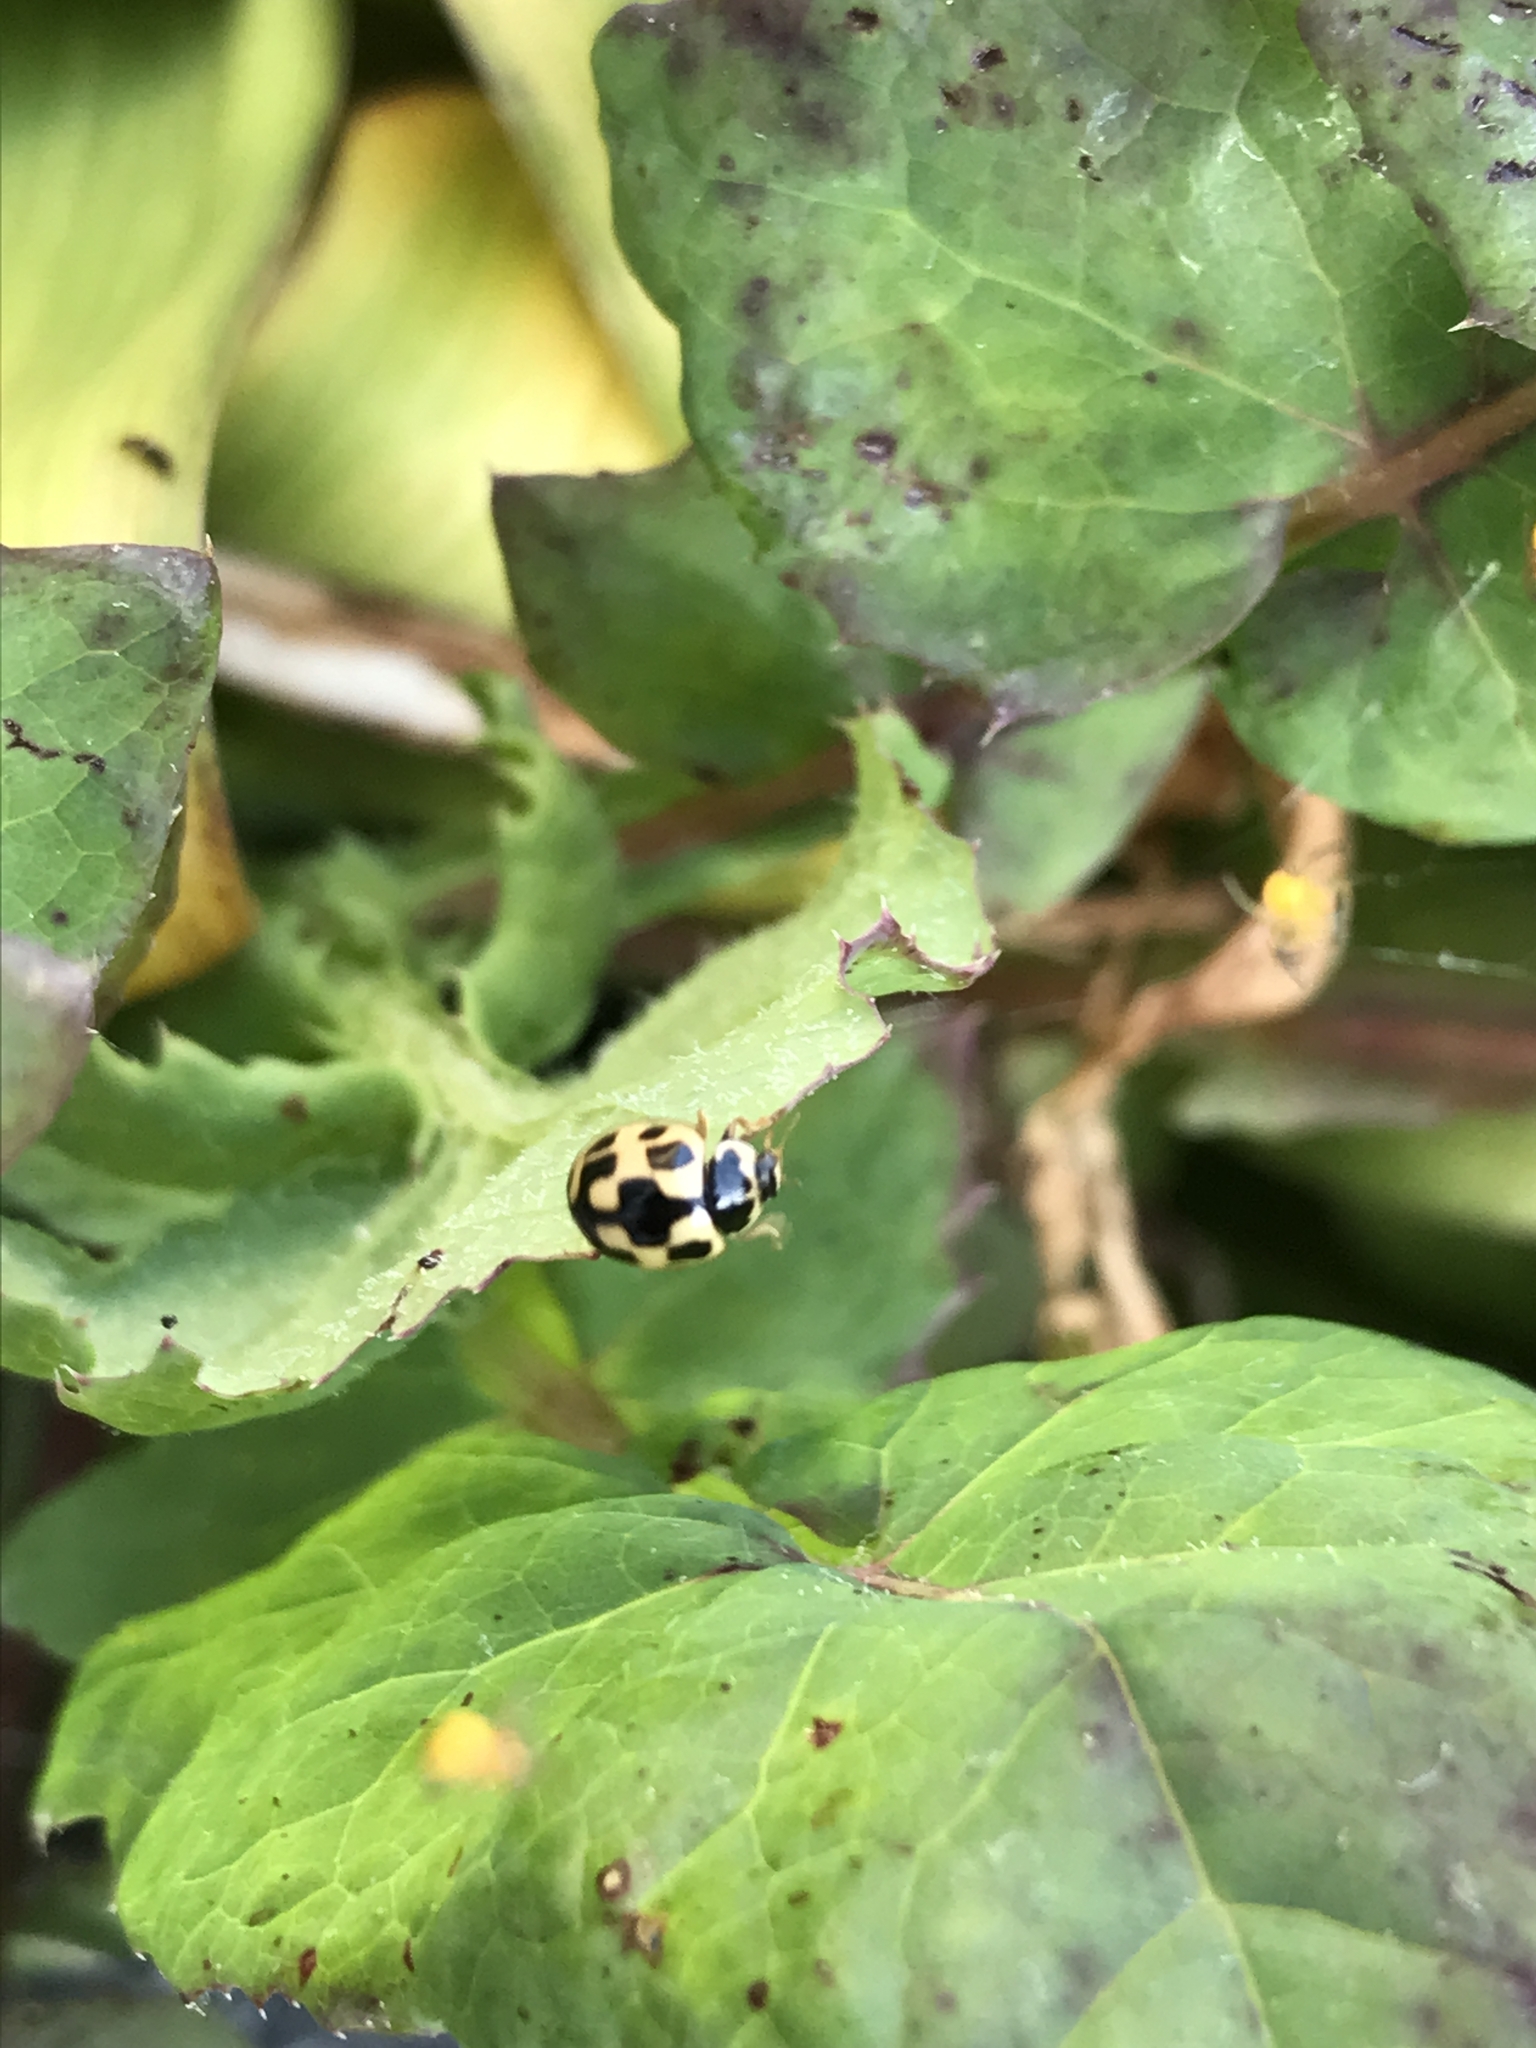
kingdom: Animalia
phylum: Arthropoda
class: Insecta
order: Coleoptera
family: Coccinellidae
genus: Propylaea
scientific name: Propylaea quatuordecimpunctata
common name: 14-spotted ladybird beetle
